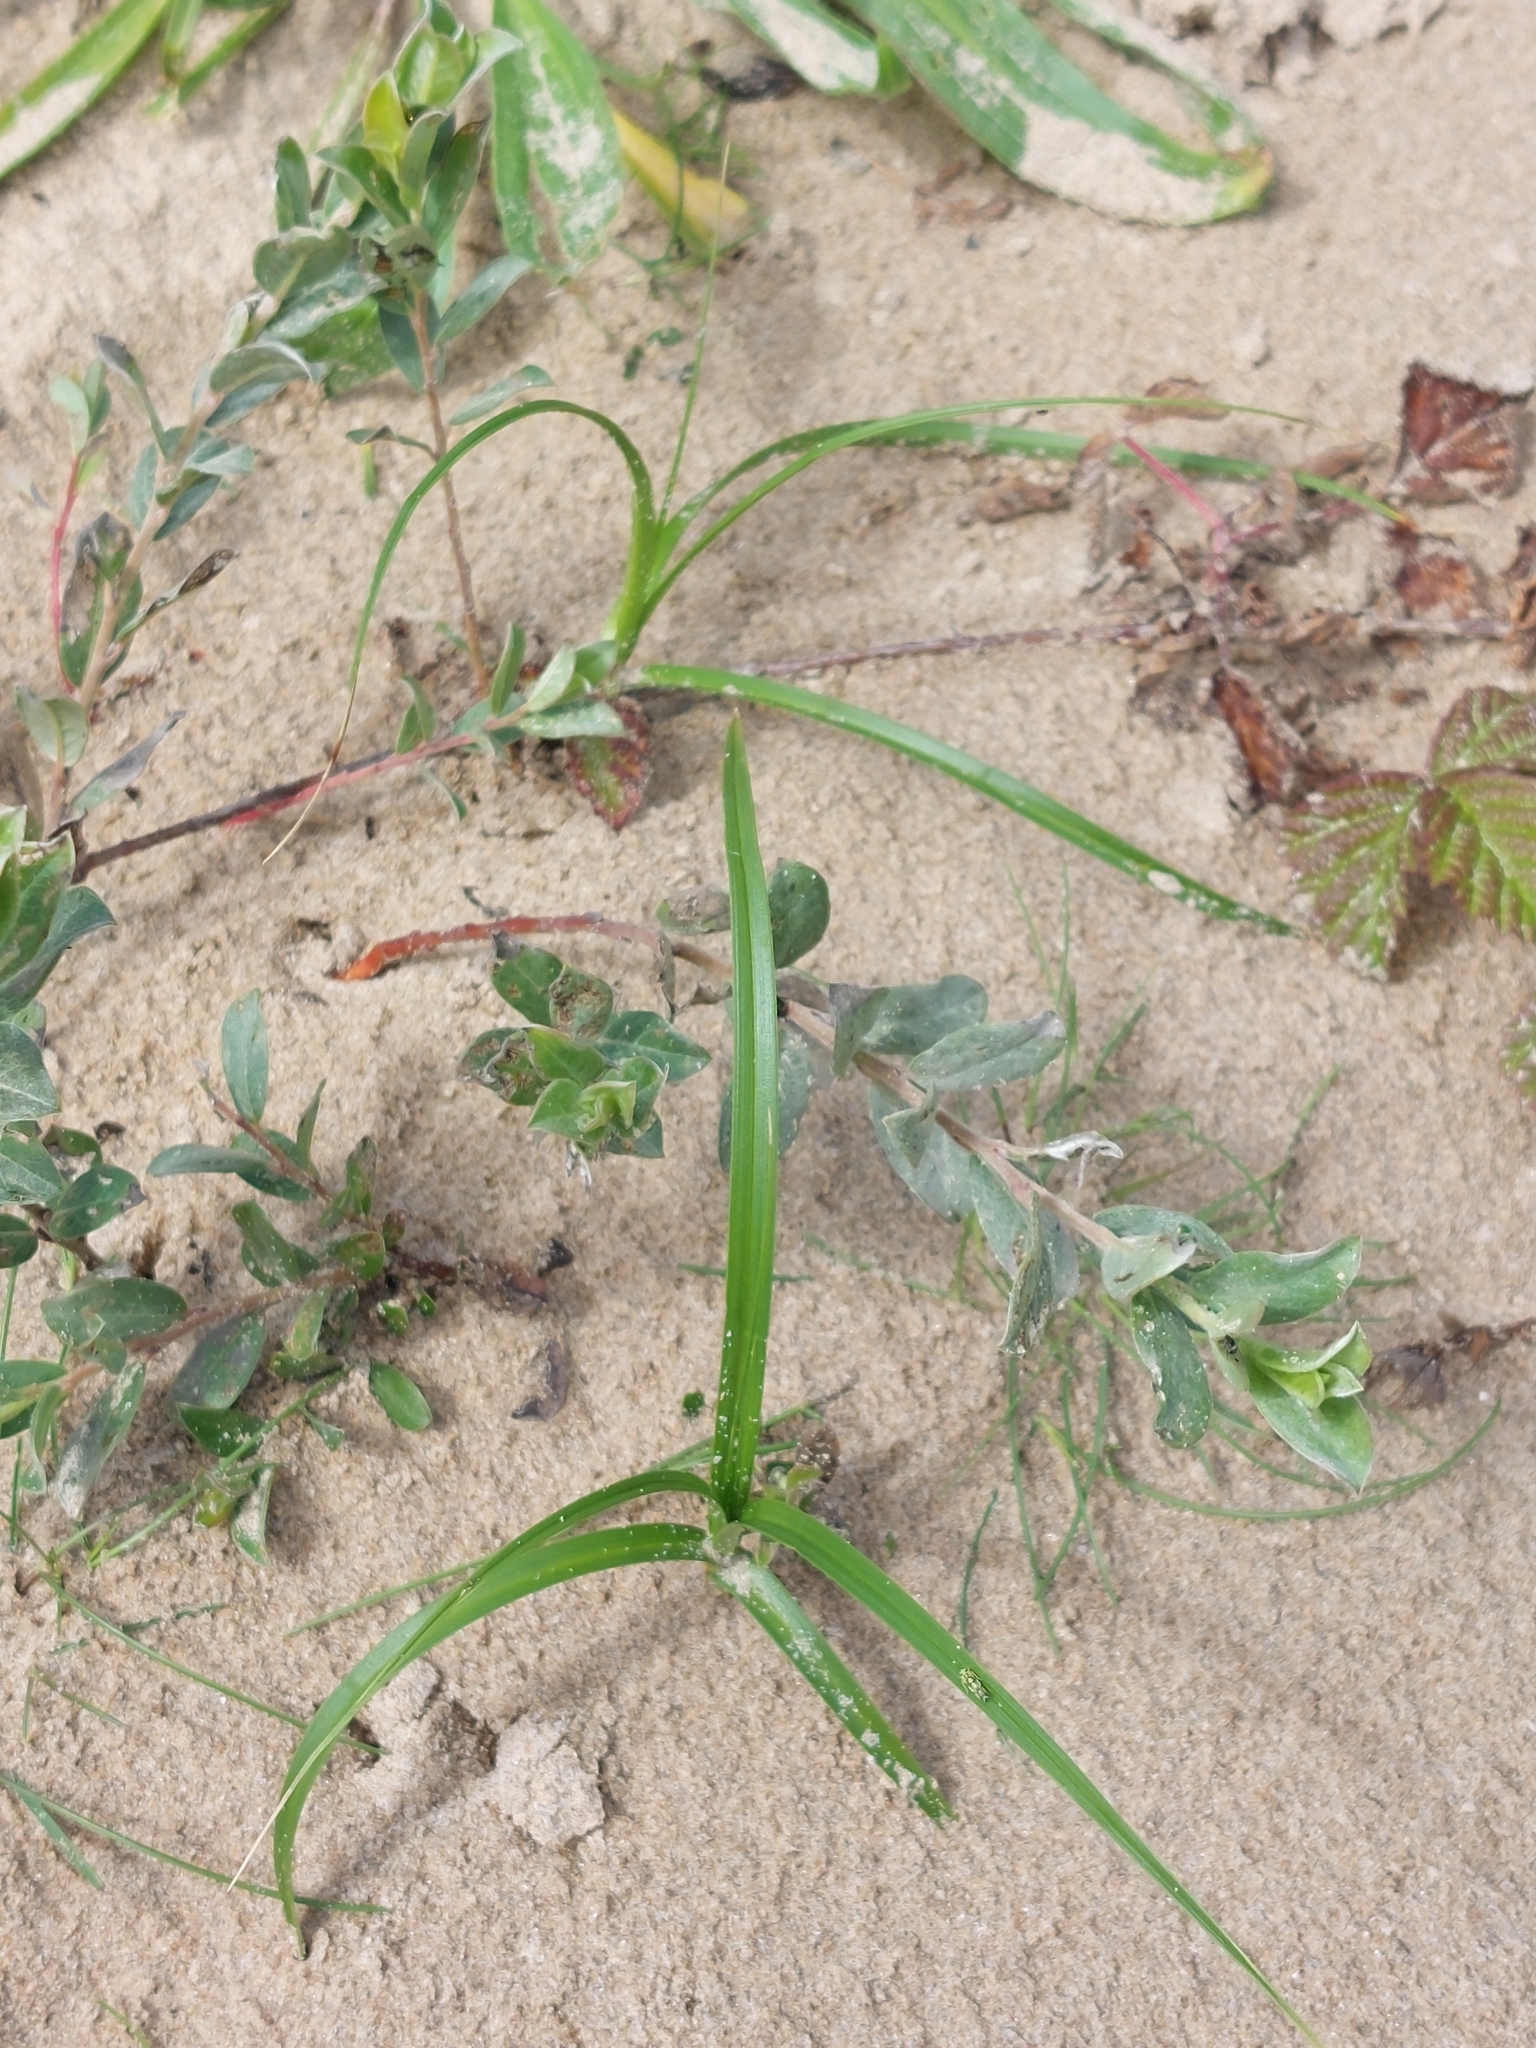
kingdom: Plantae
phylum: Tracheophyta
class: Liliopsida
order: Poales
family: Cyperaceae
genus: Carex
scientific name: Carex arenaria
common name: Sand sedge
